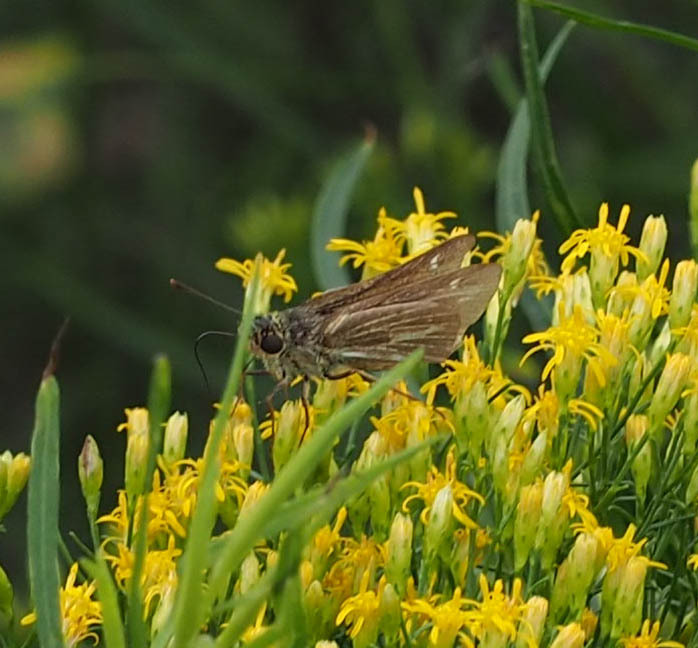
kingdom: Animalia
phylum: Arthropoda
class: Insecta
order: Lepidoptera
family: Hesperiidae
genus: Panoquina
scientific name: Panoquina panoquin
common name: Salt marsh skipper
